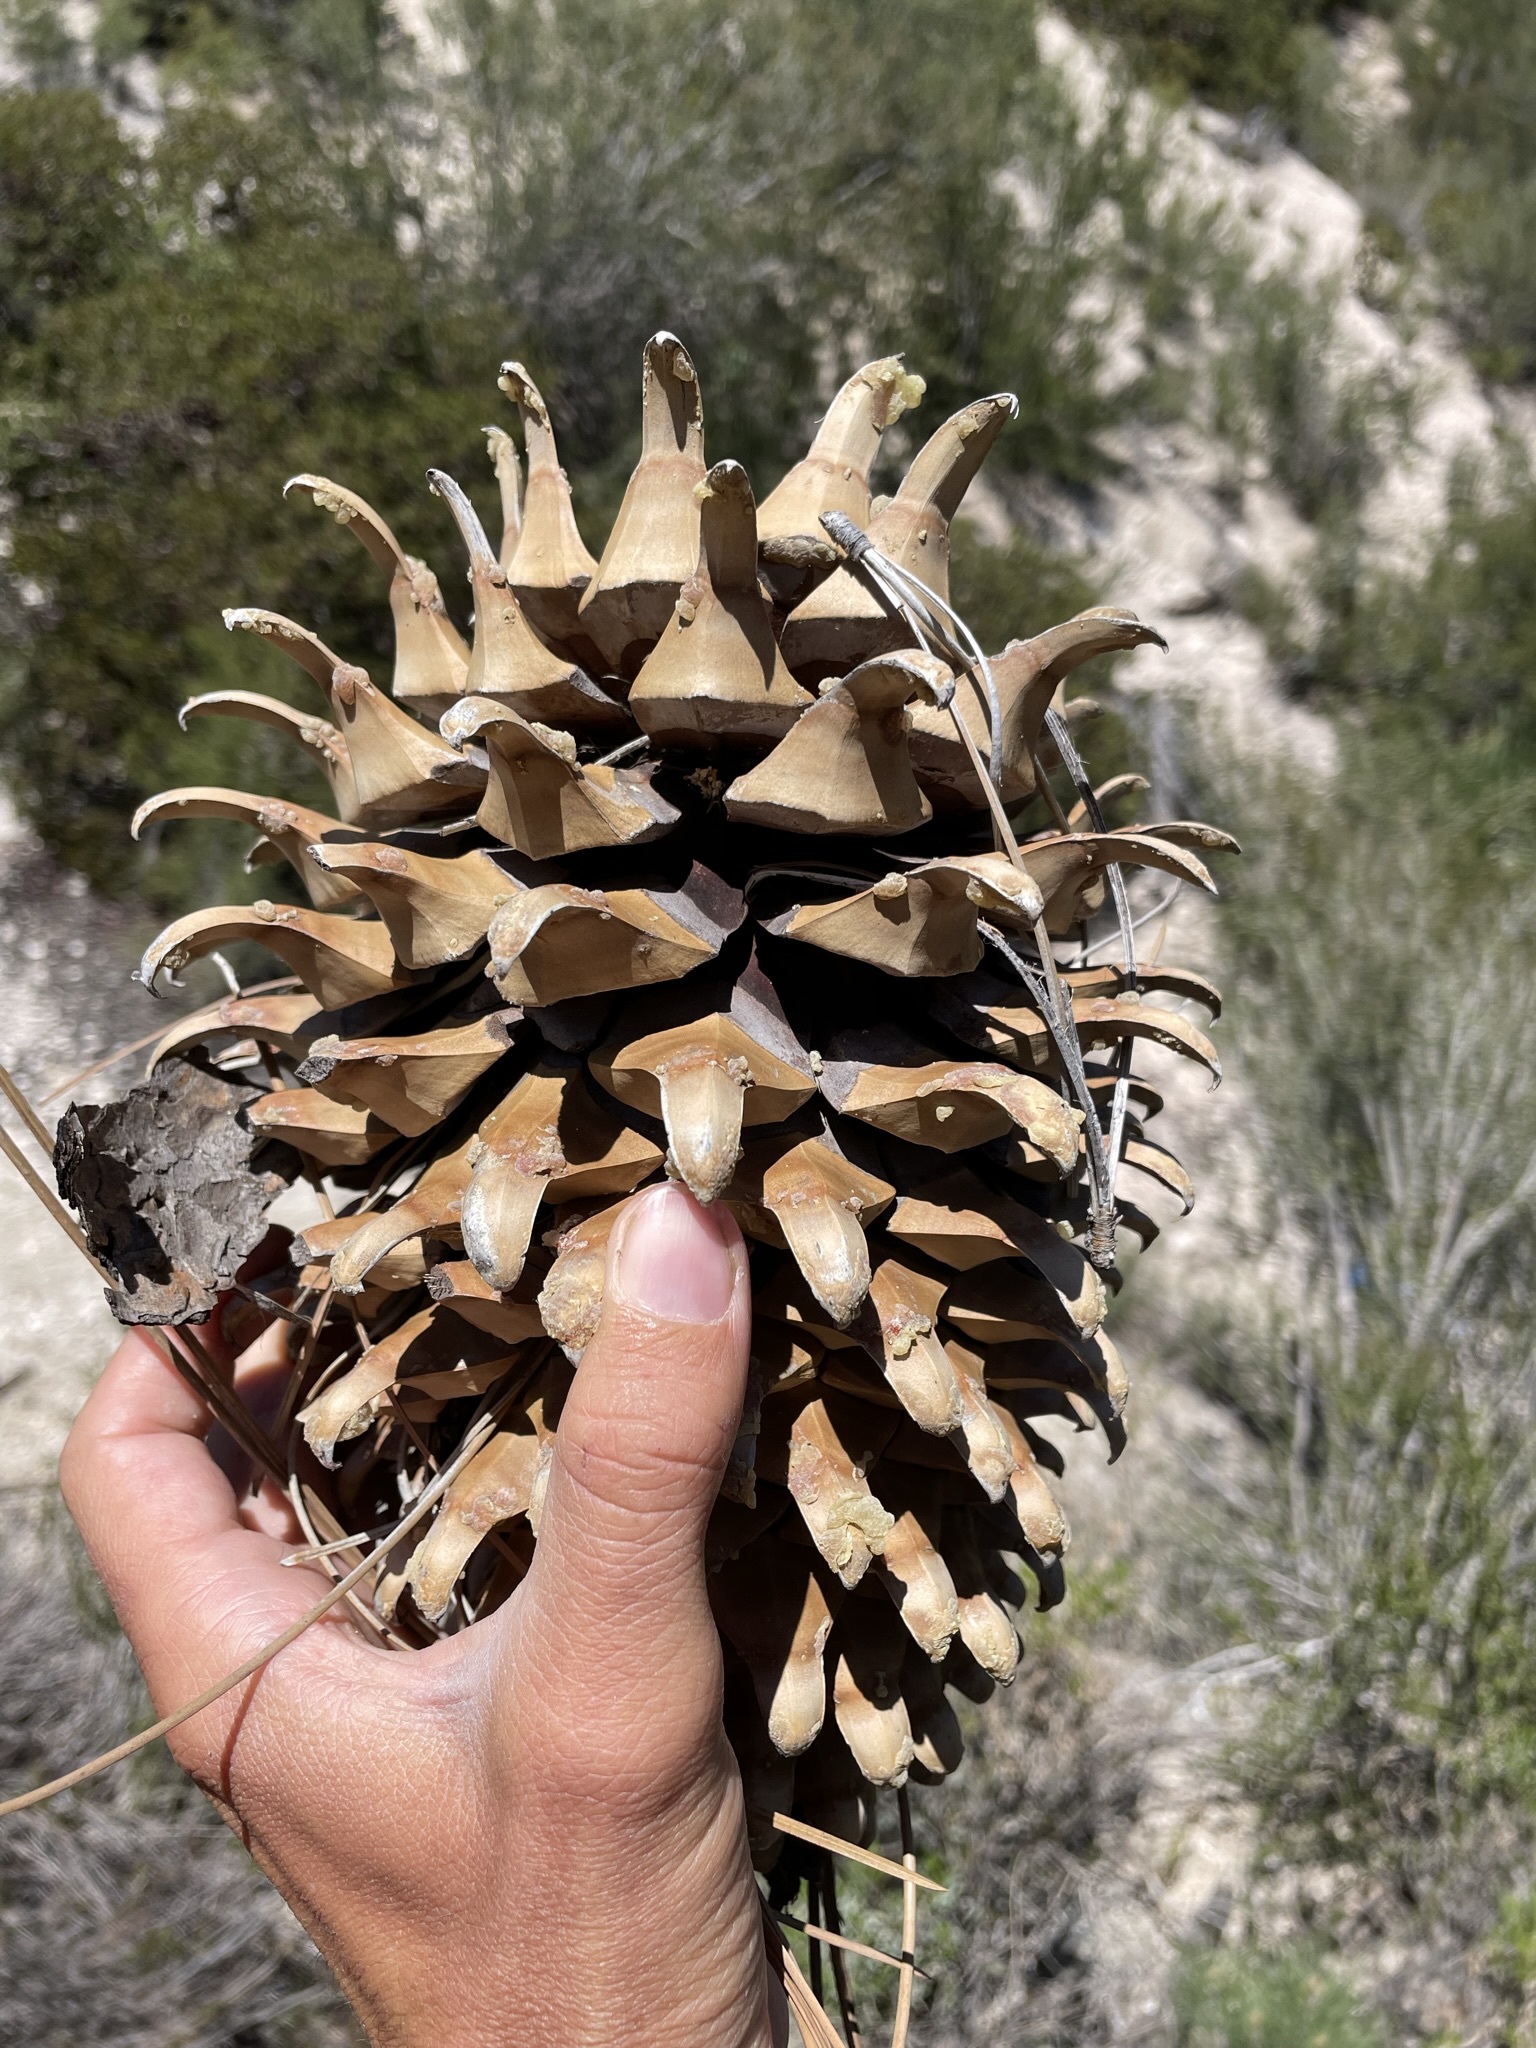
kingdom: Plantae
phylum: Tracheophyta
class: Pinopsida
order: Pinales
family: Pinaceae
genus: Pinus
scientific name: Pinus coulteri
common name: Coulter pine
